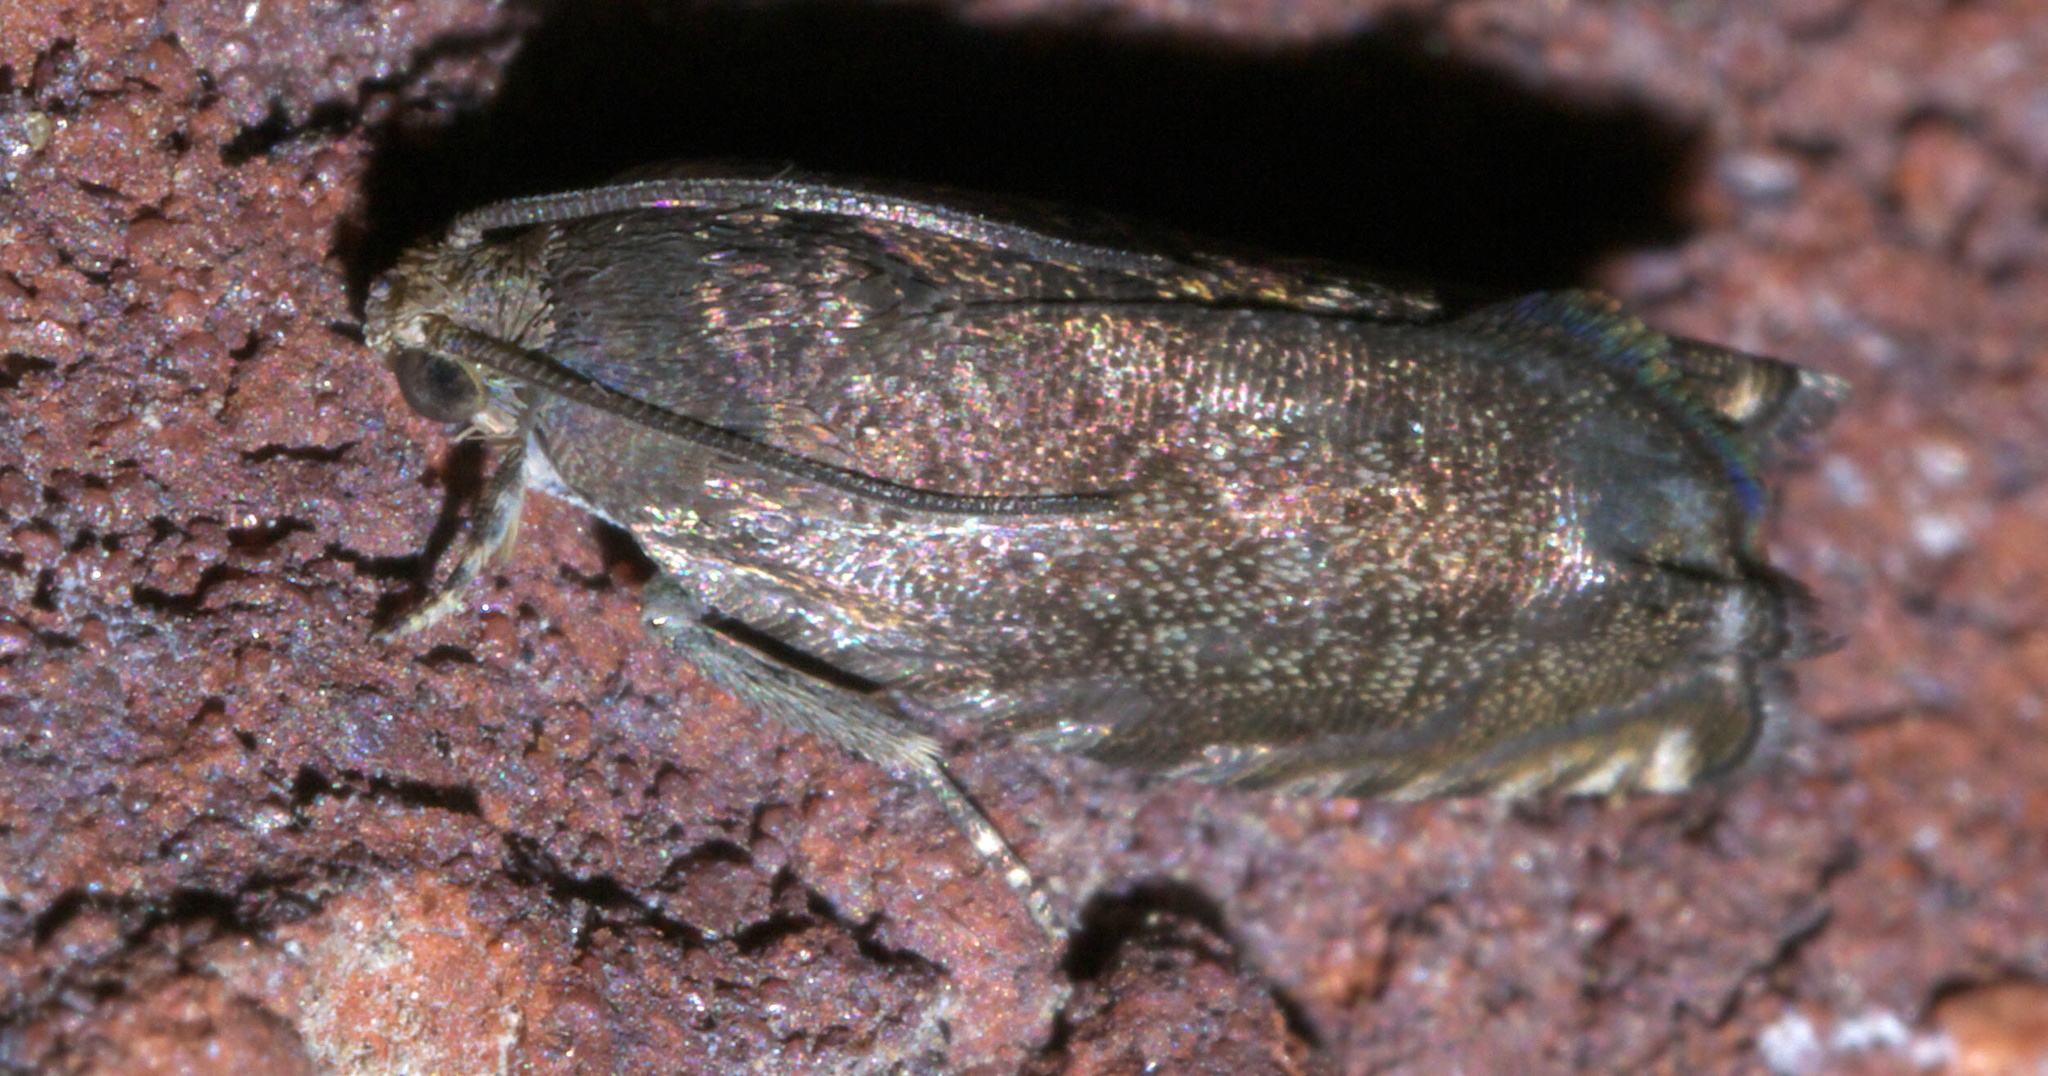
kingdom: Animalia
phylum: Arthropoda
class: Insecta
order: Lepidoptera
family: Tortricidae
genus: Cydia
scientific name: Cydia caryana
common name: Hickory shuckworm moth
